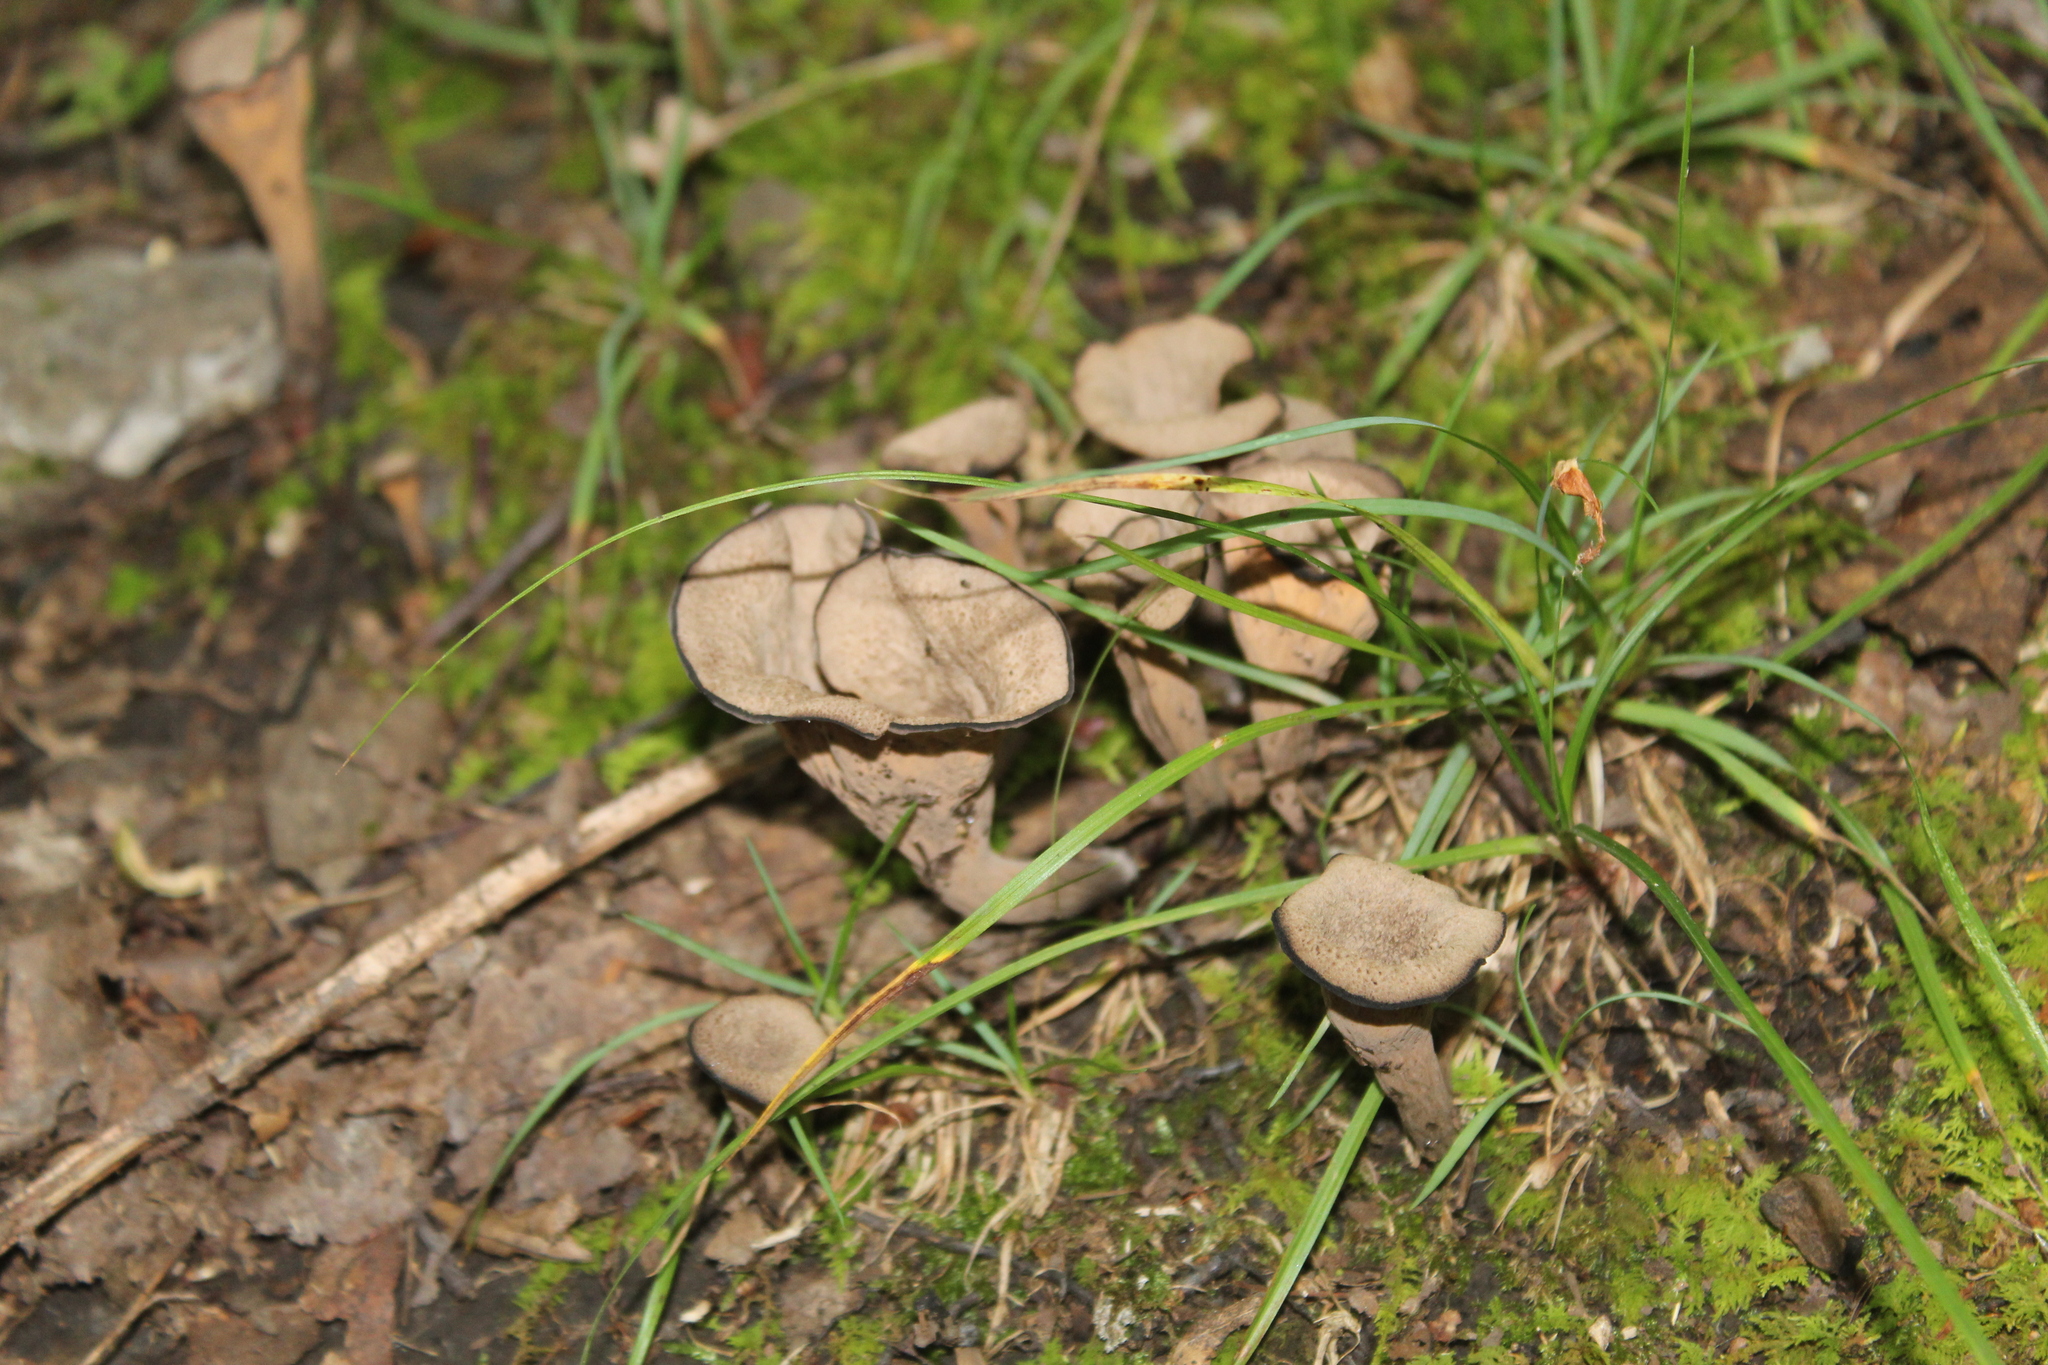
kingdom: Fungi
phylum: Basidiomycota
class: Agaricomycetes
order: Cantharellales
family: Hydnaceae
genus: Craterellus
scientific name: Craterellus cornucopioides
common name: Horn of plenty
